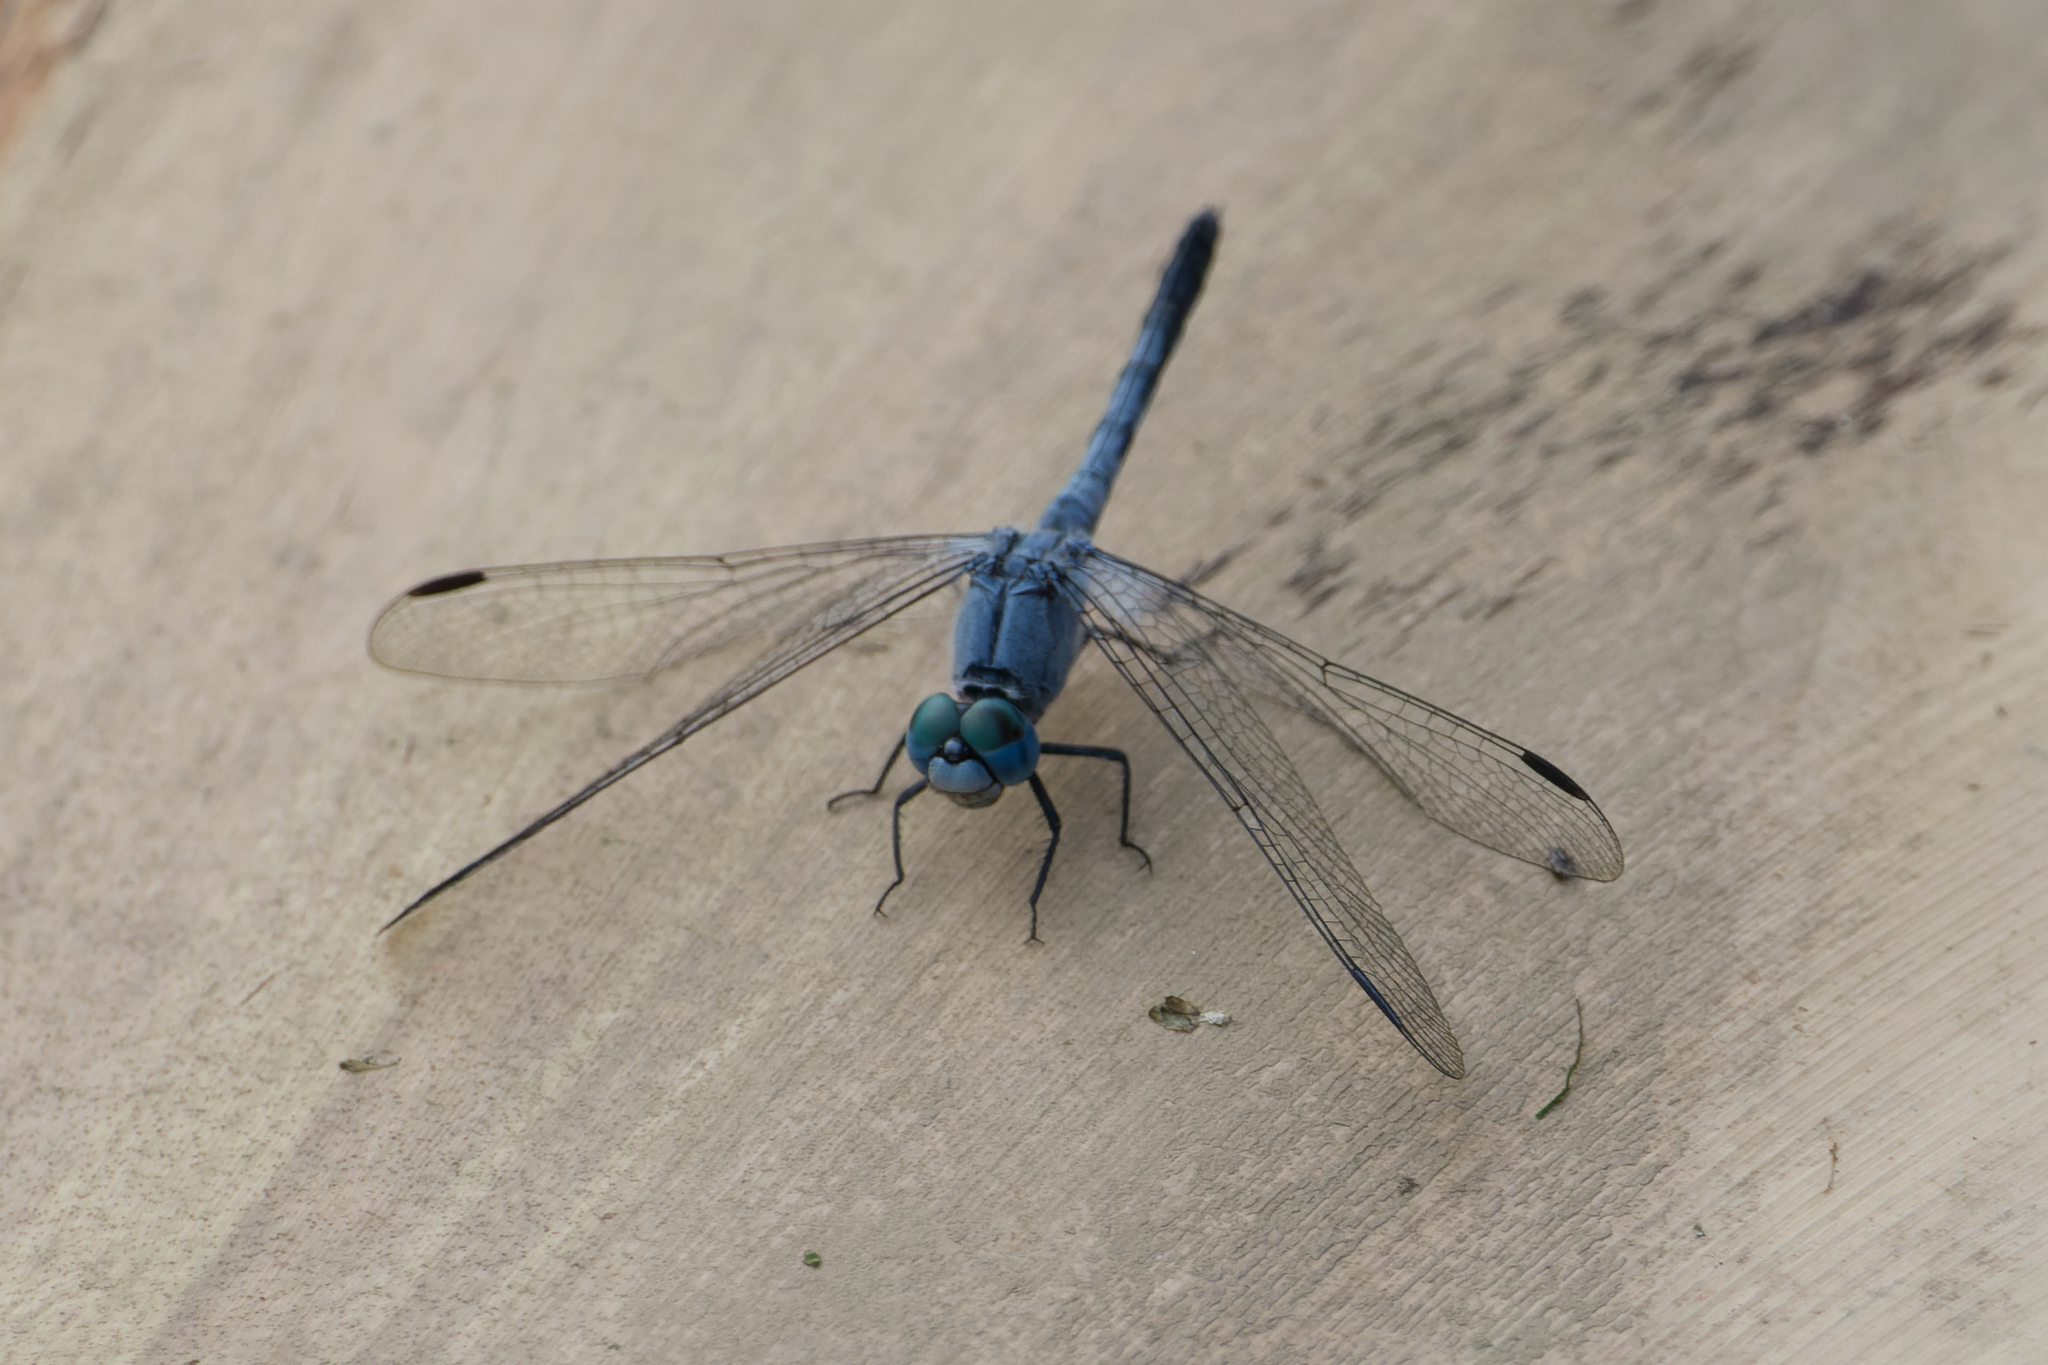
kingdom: Animalia
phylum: Arthropoda
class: Insecta
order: Odonata
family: Libellulidae
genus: Diplacodes
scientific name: Diplacodes trivialis
